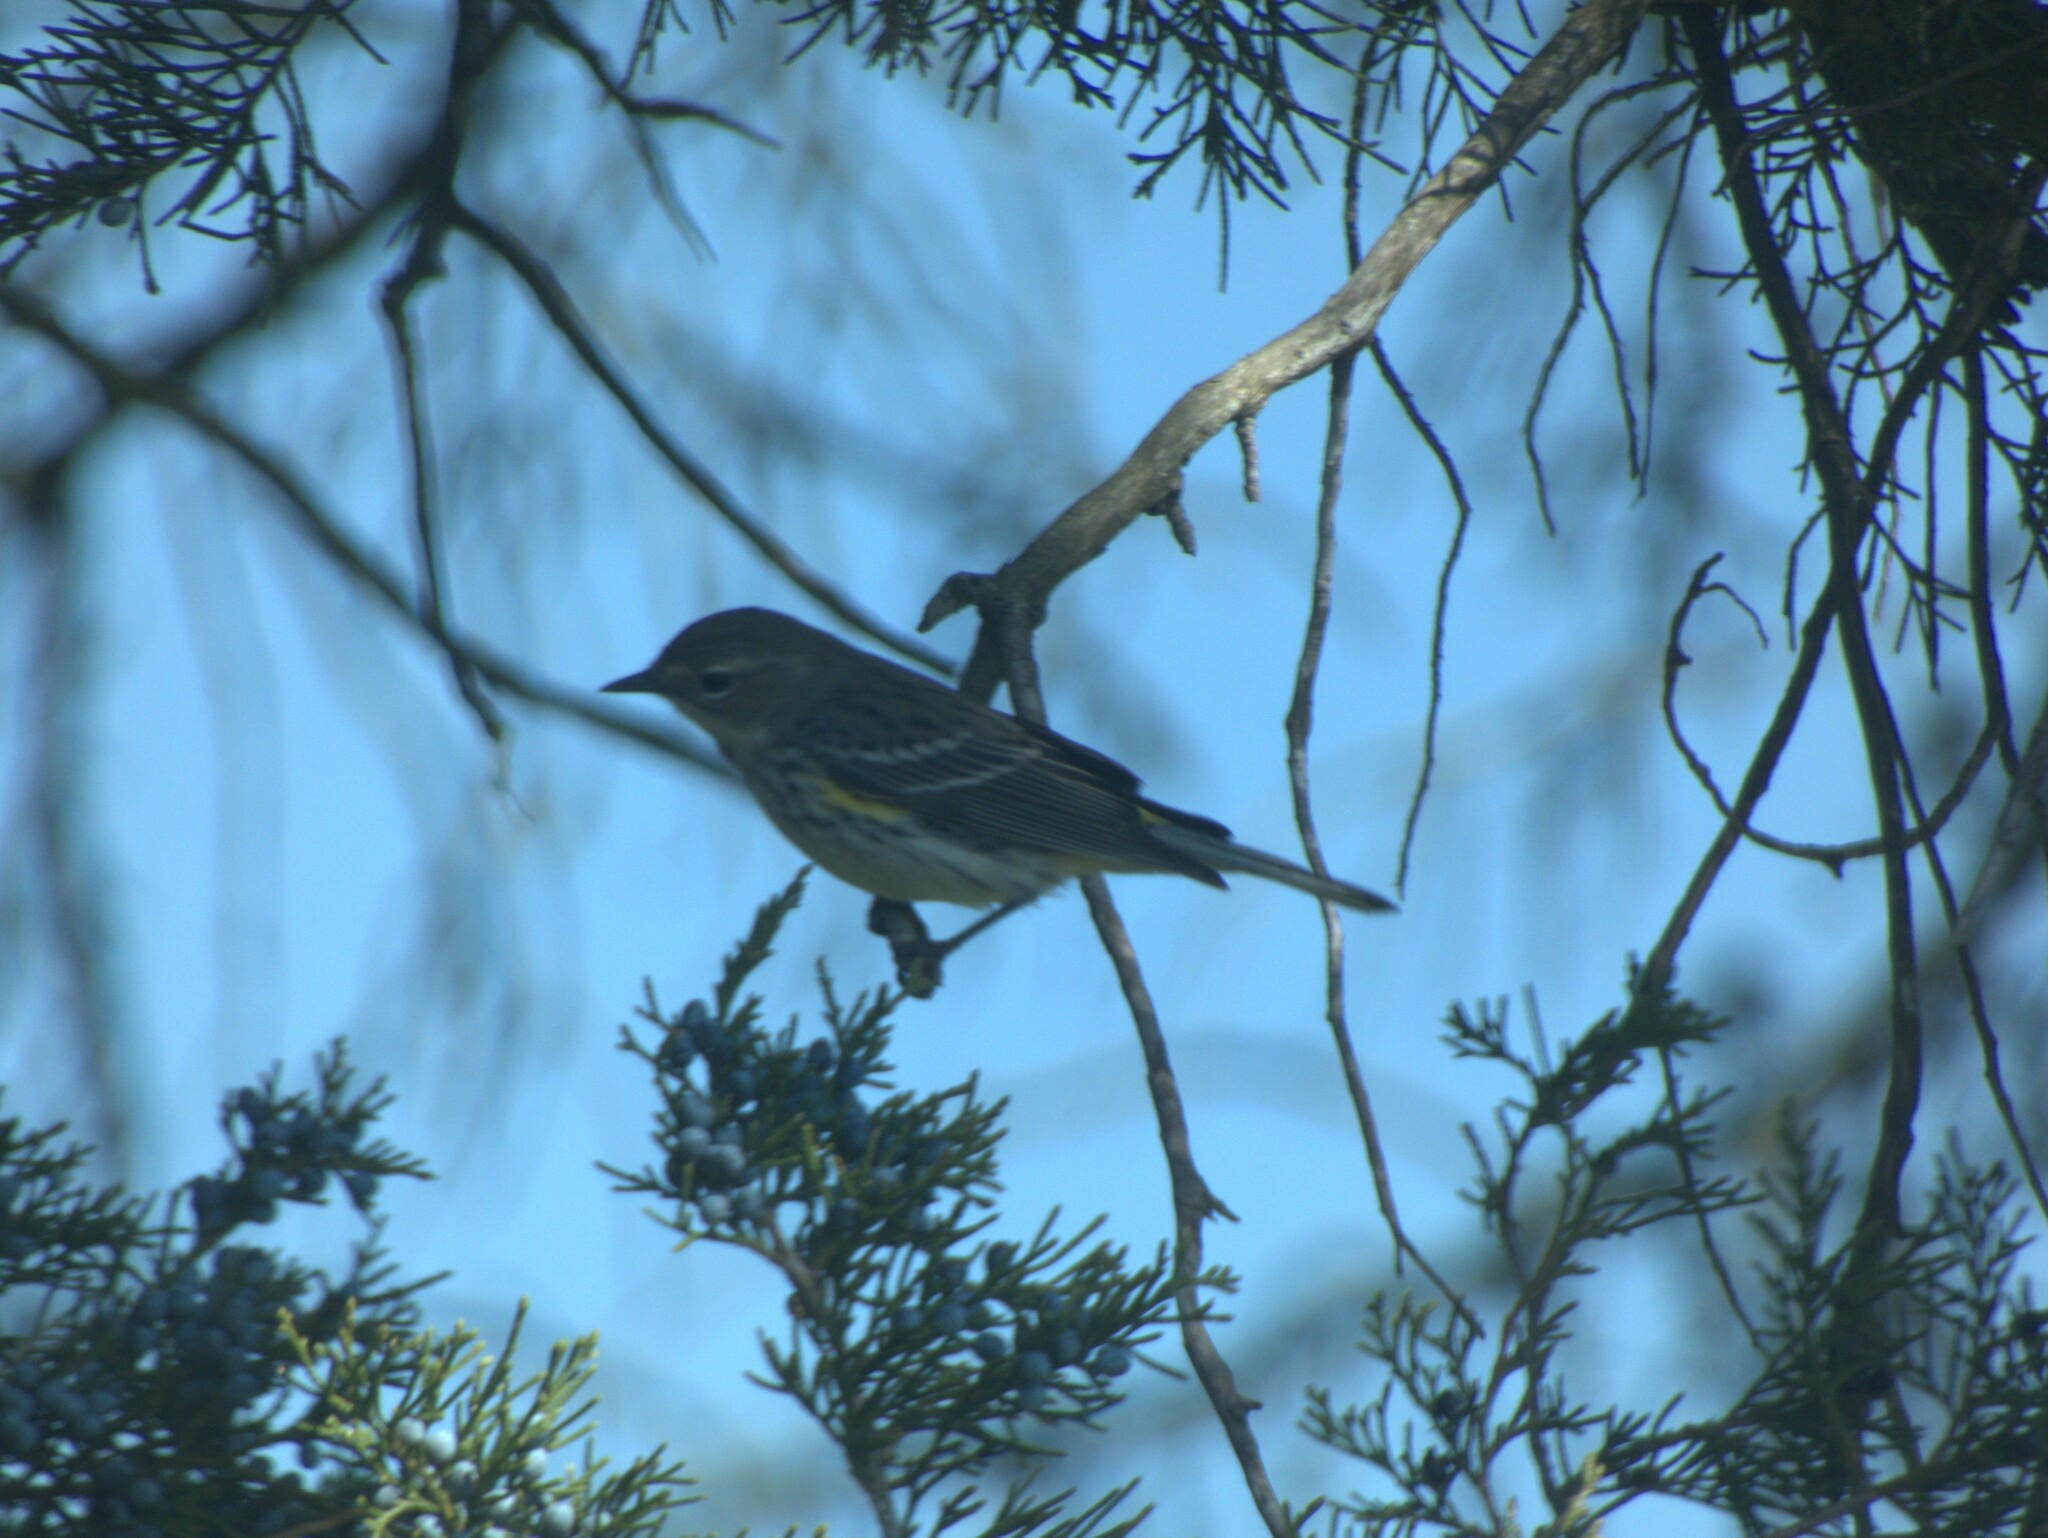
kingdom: Animalia
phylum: Chordata
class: Aves
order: Passeriformes
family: Parulidae
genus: Setophaga
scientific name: Setophaga coronata
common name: Myrtle warbler
